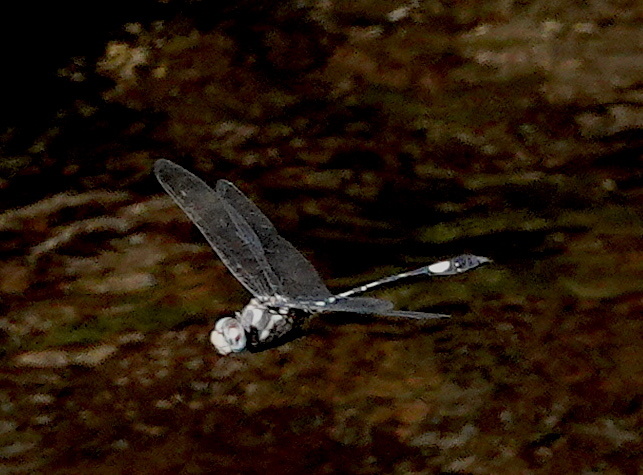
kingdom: Animalia
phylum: Arthropoda
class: Insecta
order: Odonata
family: Libellulidae
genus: Brechmorhoga
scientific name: Brechmorhoga mendax
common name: Pale-faced clubskimmer
